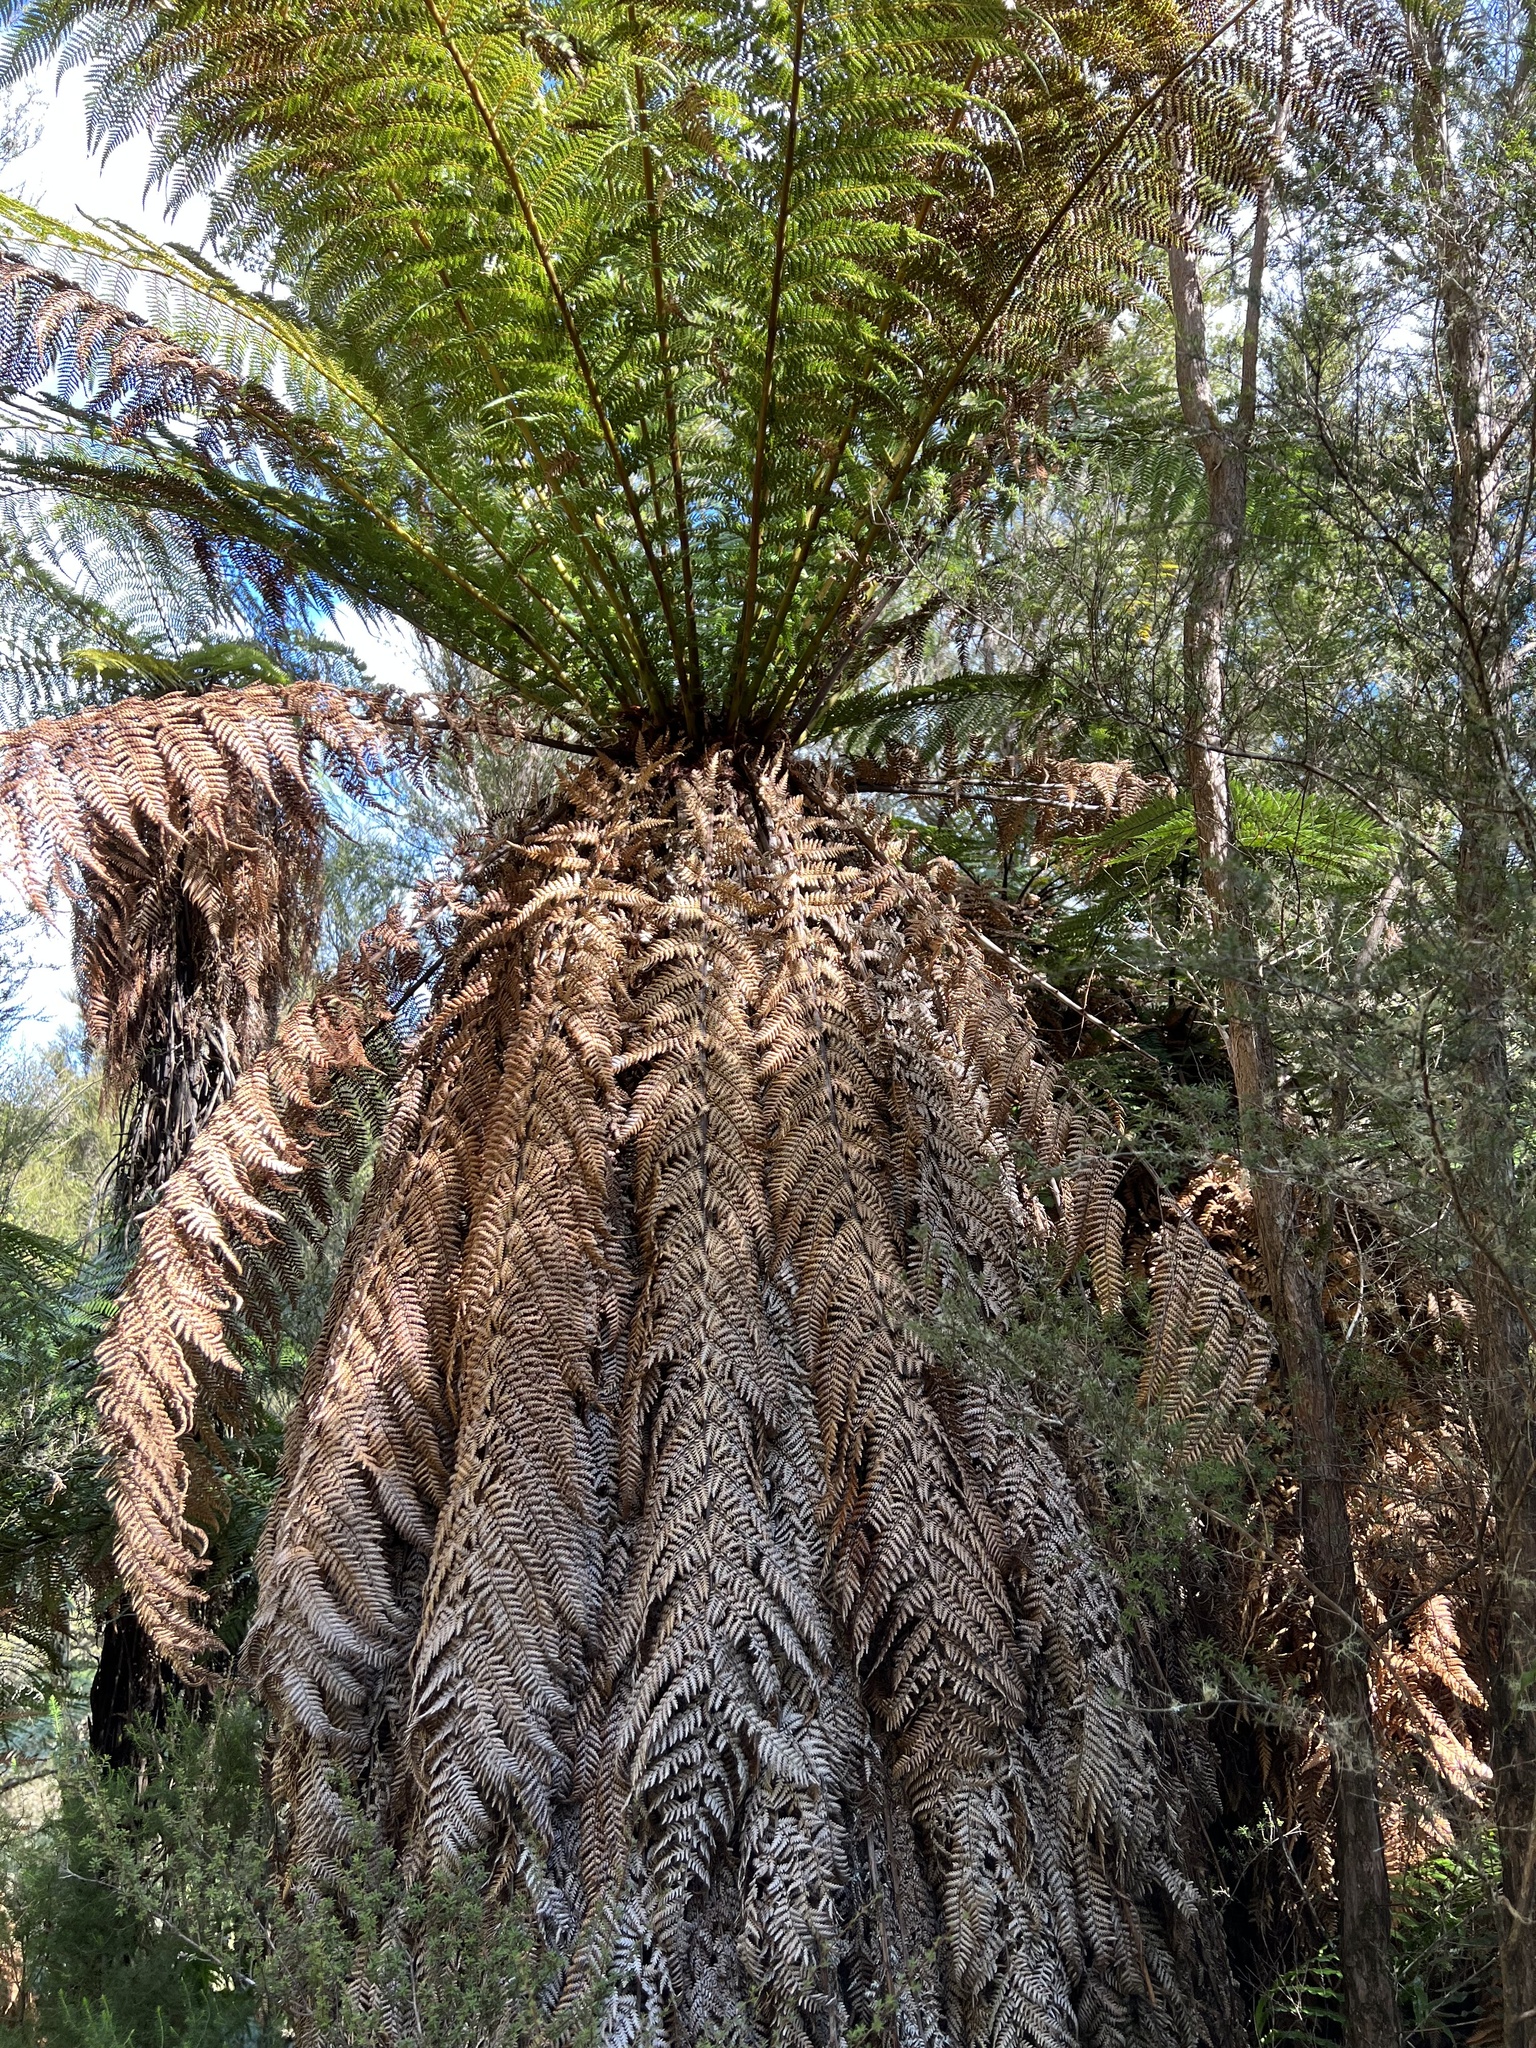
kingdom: Plantae
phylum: Tracheophyta
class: Polypodiopsida
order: Cyatheales
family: Dicksoniaceae
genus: Dicksonia
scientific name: Dicksonia fibrosa
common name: Golden tree fern
